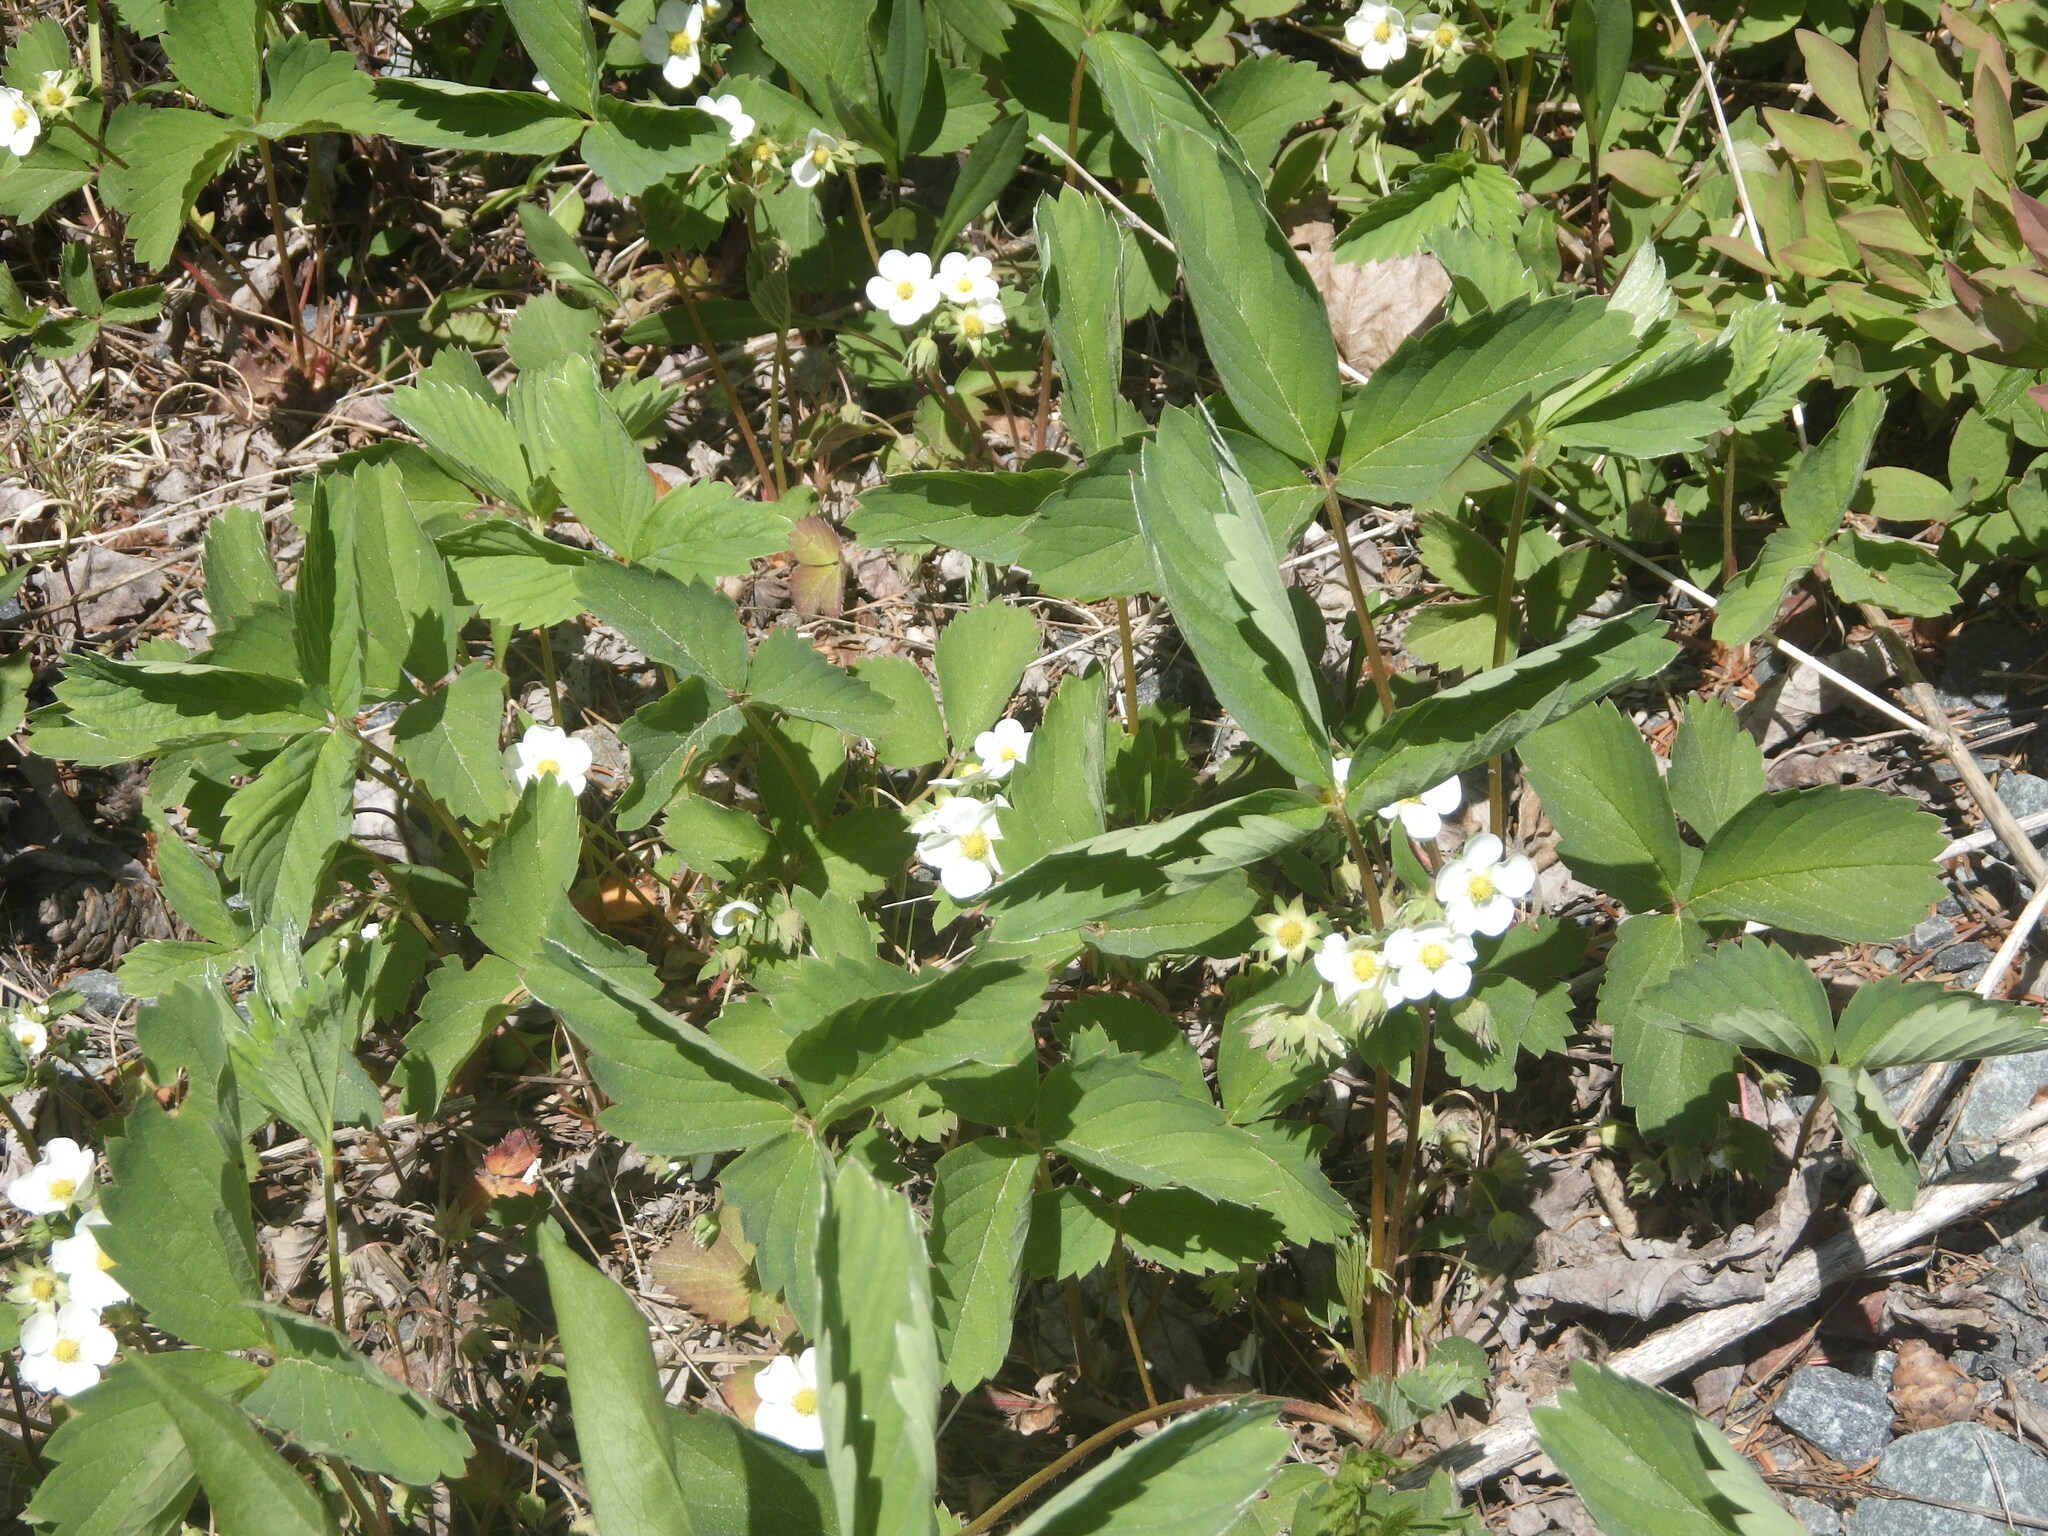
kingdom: Plantae
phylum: Tracheophyta
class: Magnoliopsida
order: Rosales
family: Rosaceae
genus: Fragaria
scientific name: Fragaria virginiana
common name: Thickleaved wild strawberry
